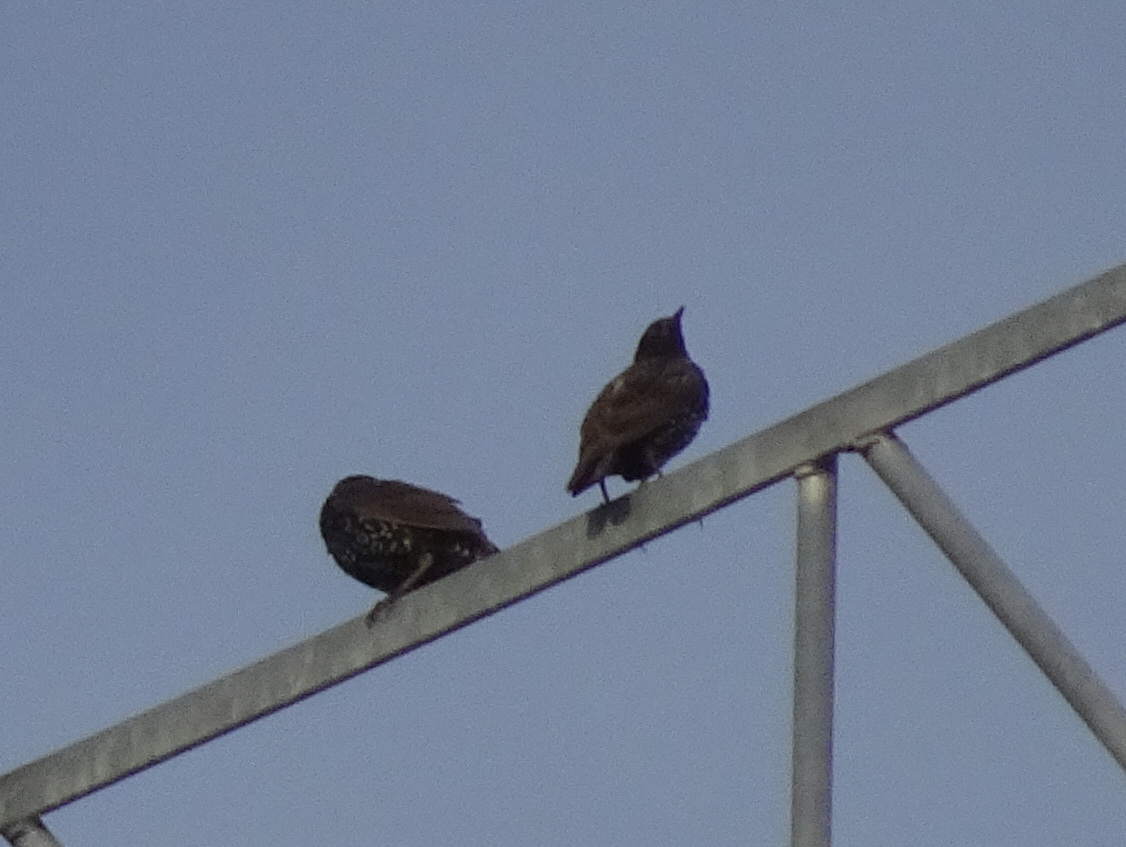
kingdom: Animalia
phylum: Chordata
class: Aves
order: Passeriformes
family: Sturnidae
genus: Sturnus
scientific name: Sturnus vulgaris
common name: Common starling
